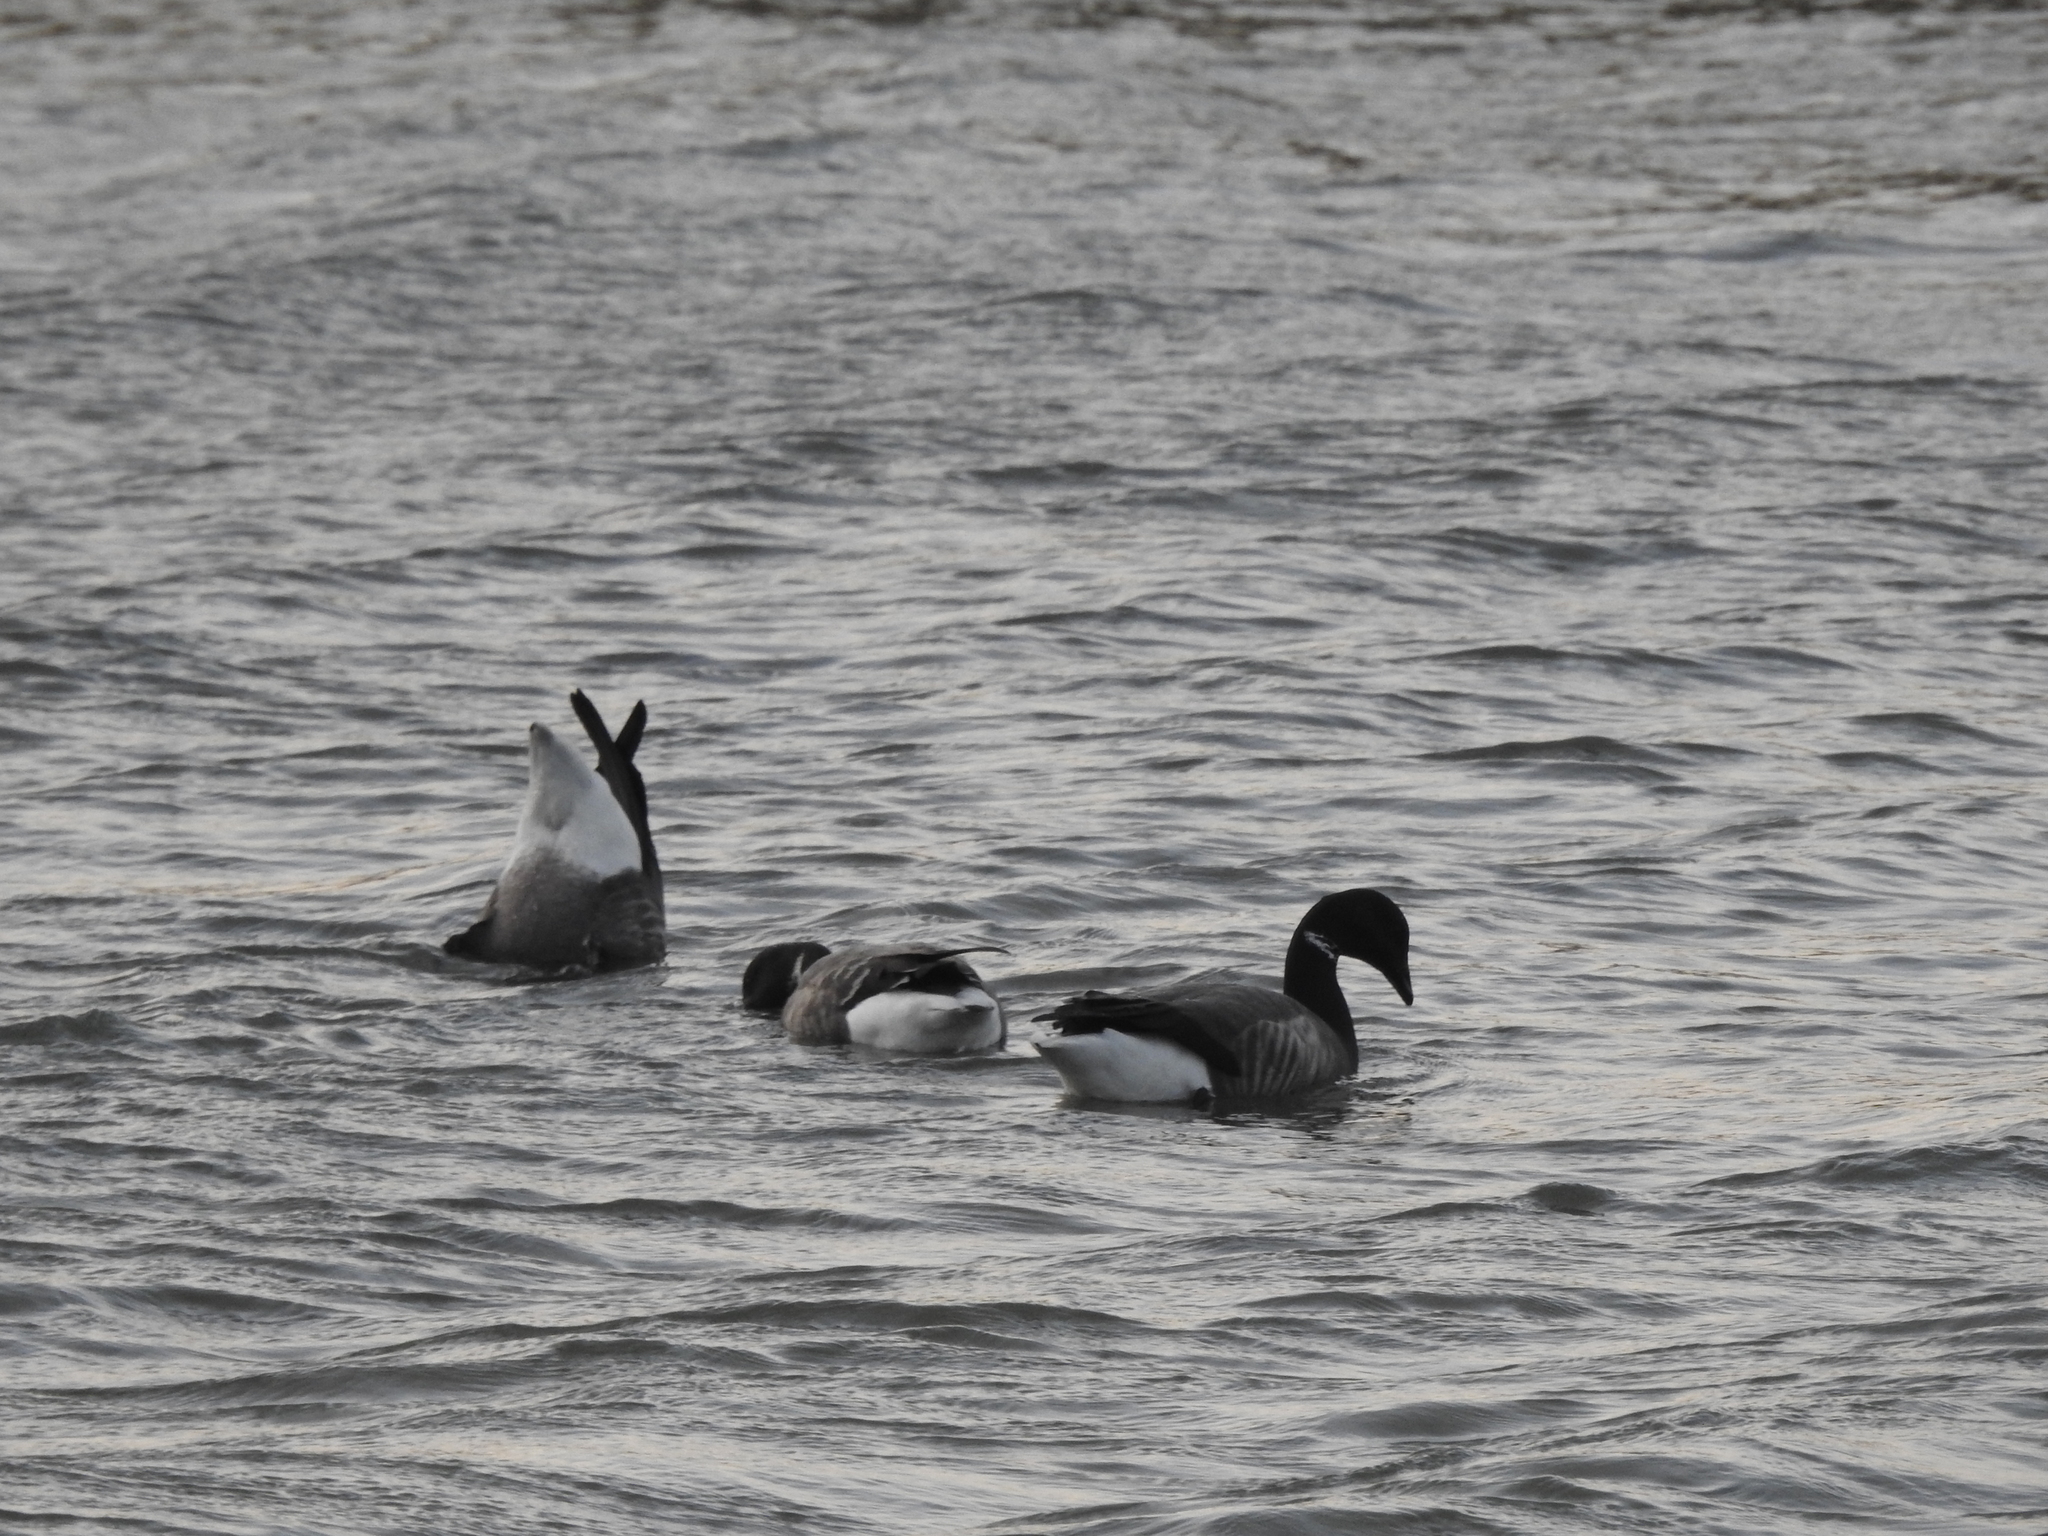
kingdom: Animalia
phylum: Chordata
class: Aves
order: Anseriformes
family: Anatidae
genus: Branta
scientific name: Branta bernicla
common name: Brant goose
